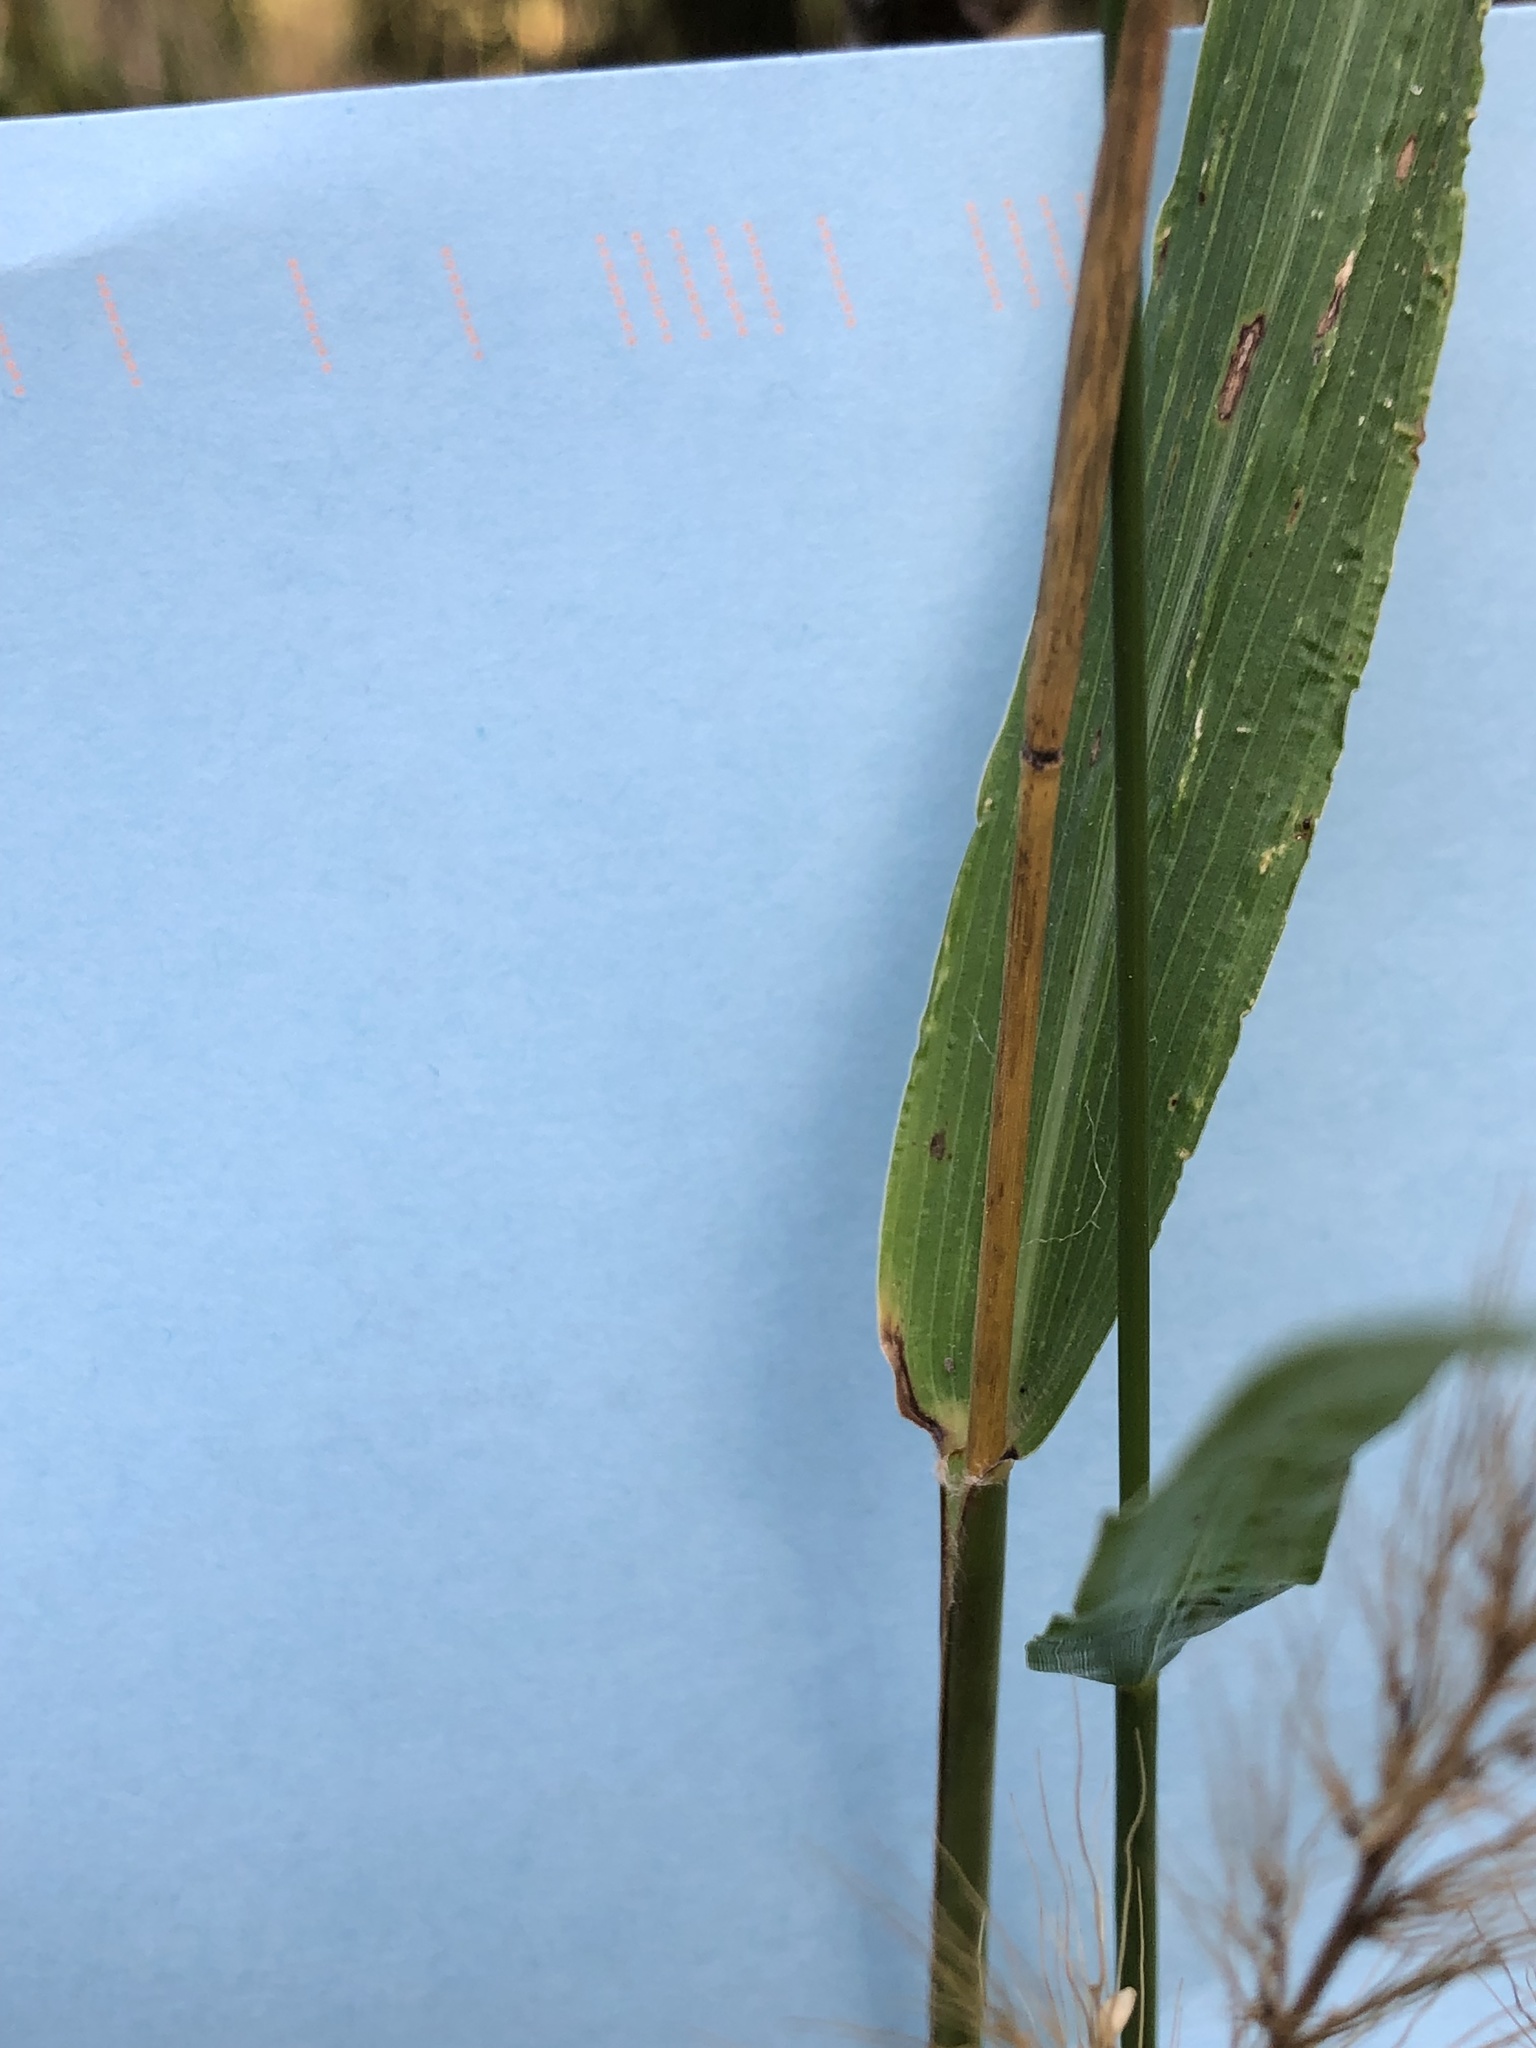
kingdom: Plantae
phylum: Tracheophyta
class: Liliopsida
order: Poales
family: Poaceae
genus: Setaria
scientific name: Setaria scheelei
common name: Southwestern bristle grass
